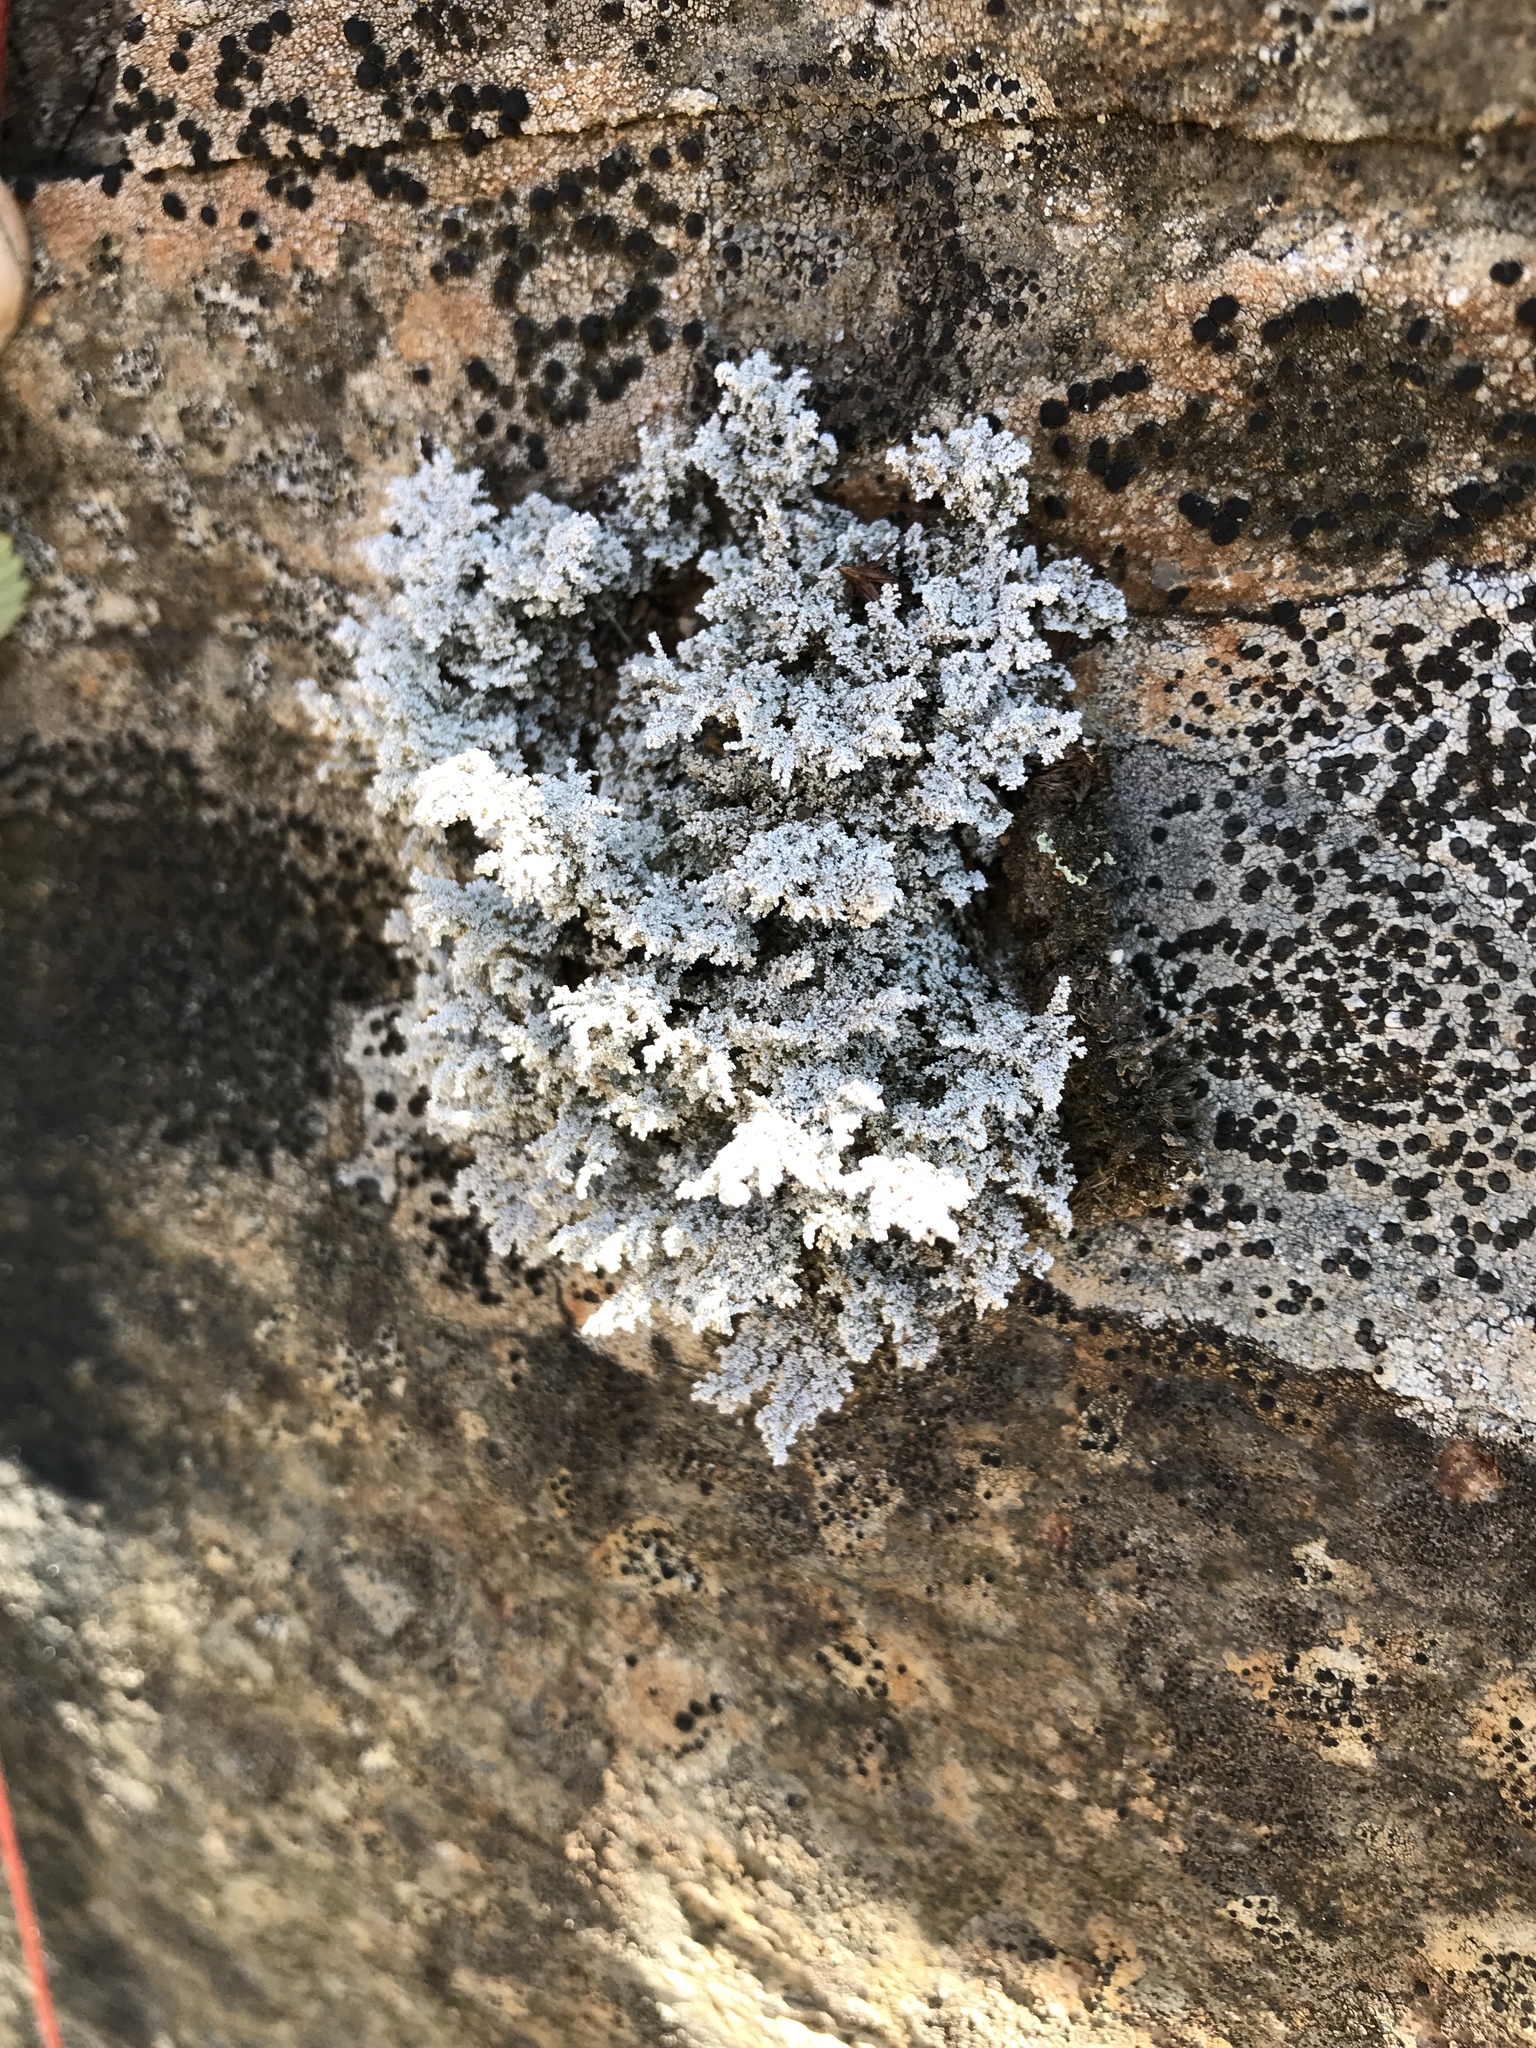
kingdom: Fungi
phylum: Ascomycota
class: Lecanoromycetes
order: Lecanorales
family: Stereocaulaceae
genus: Stereocaulon
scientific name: Stereocaulon saxatile
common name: Rock foam
